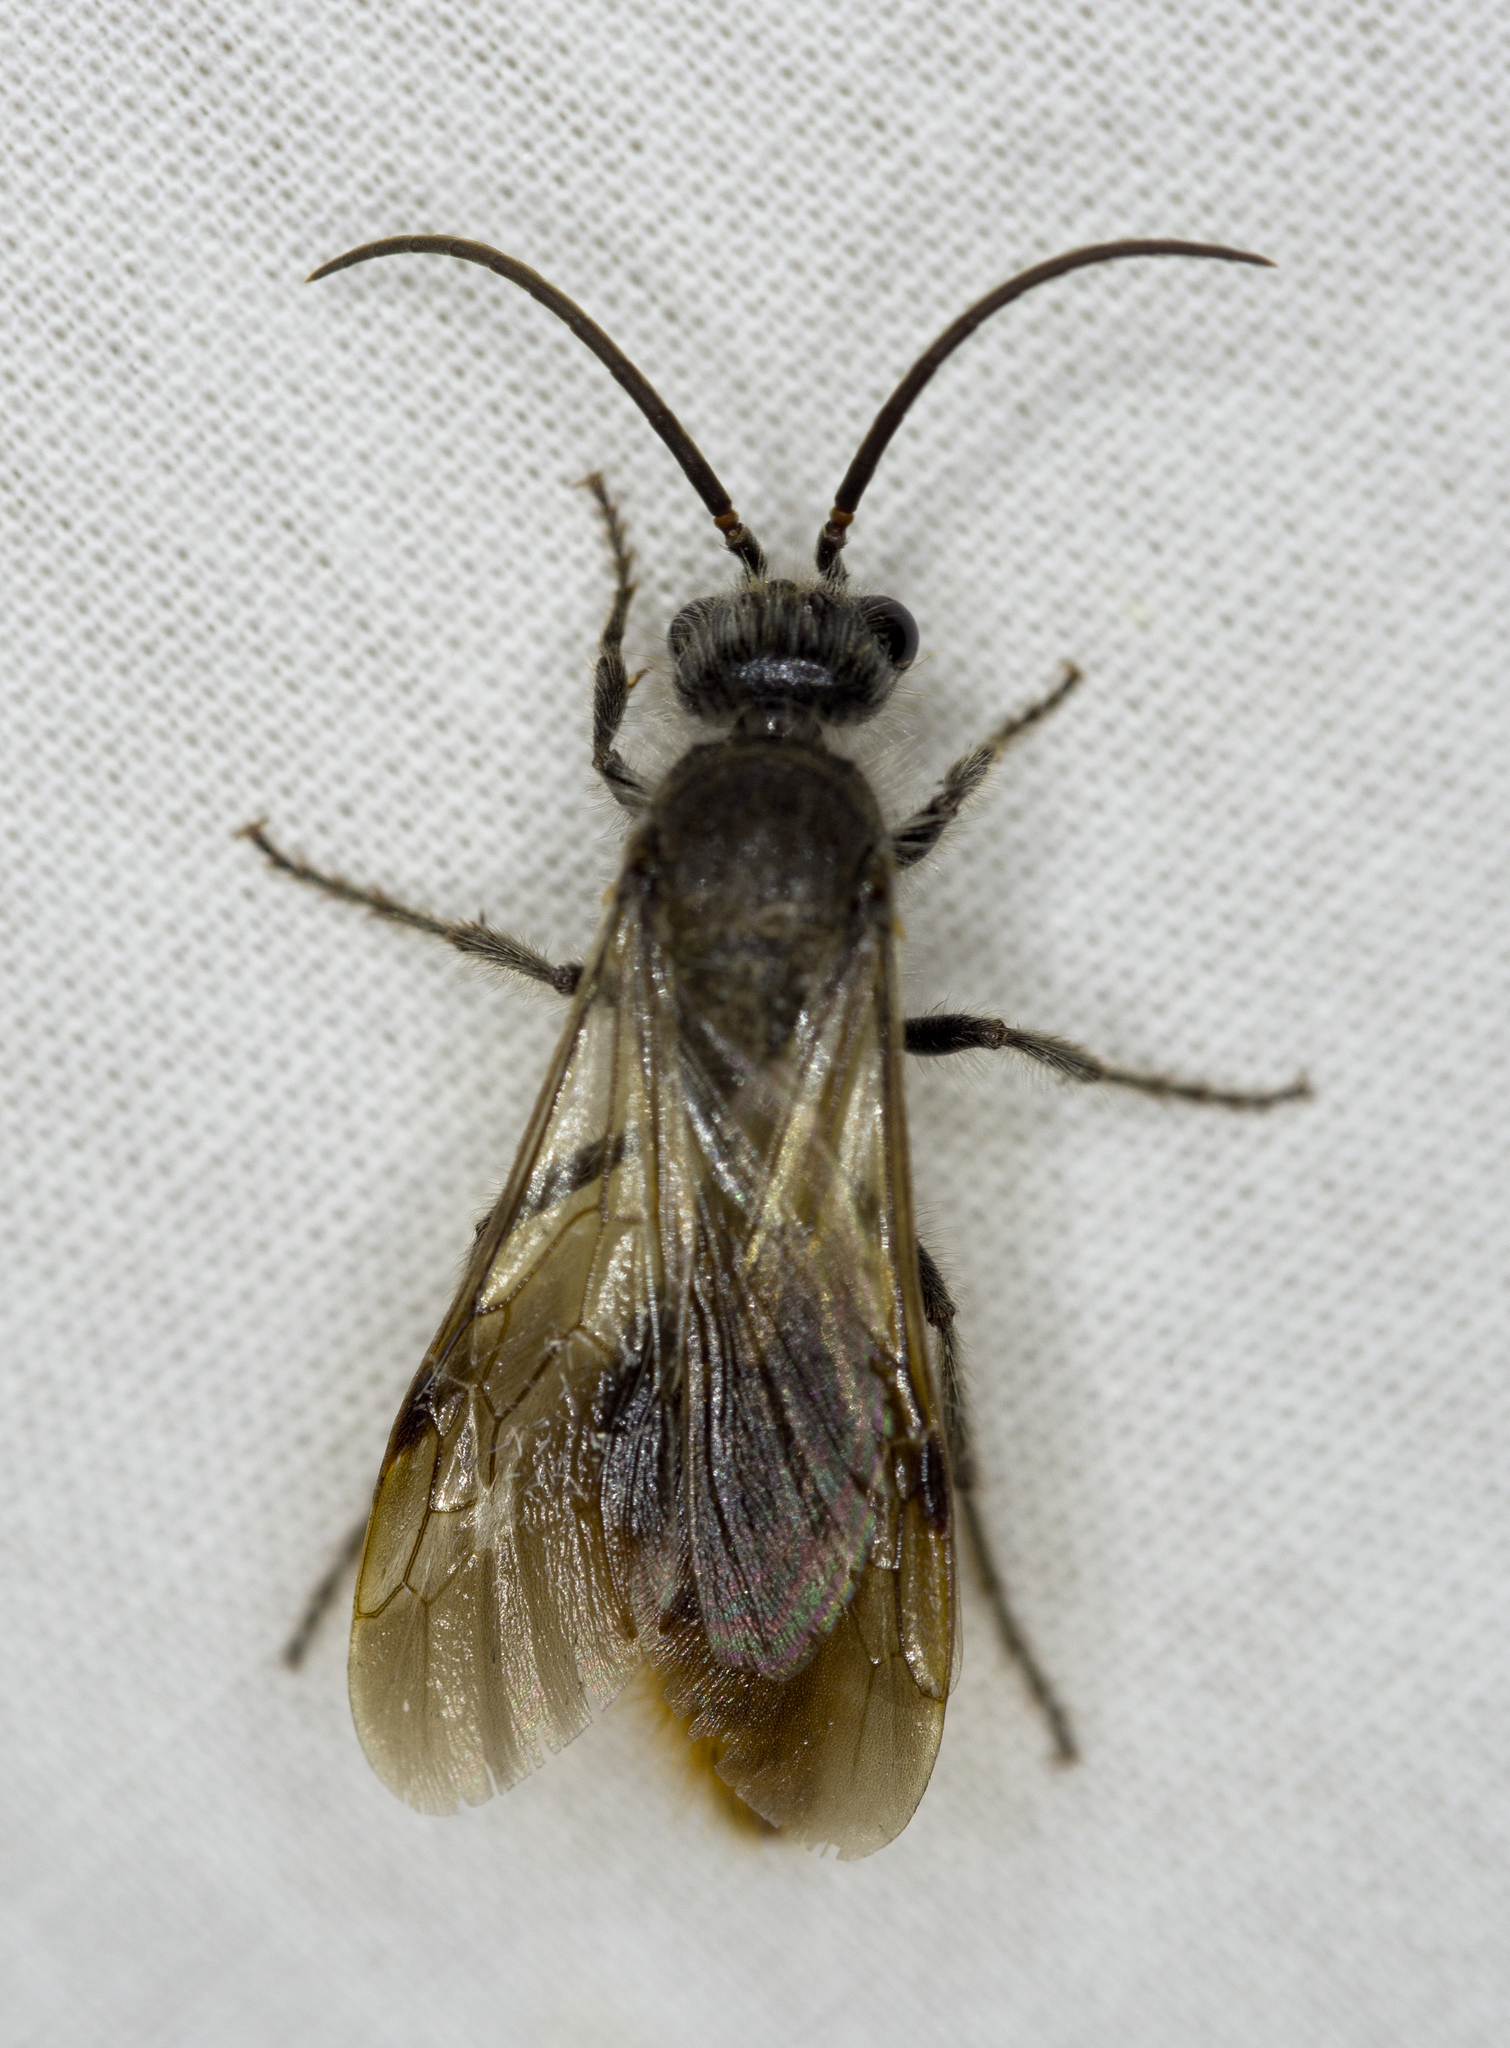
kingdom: Animalia
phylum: Arthropoda
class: Insecta
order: Hymenoptera
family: Mutillidae
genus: Sphaeropthalma
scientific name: Sphaeropthalma marpesia
